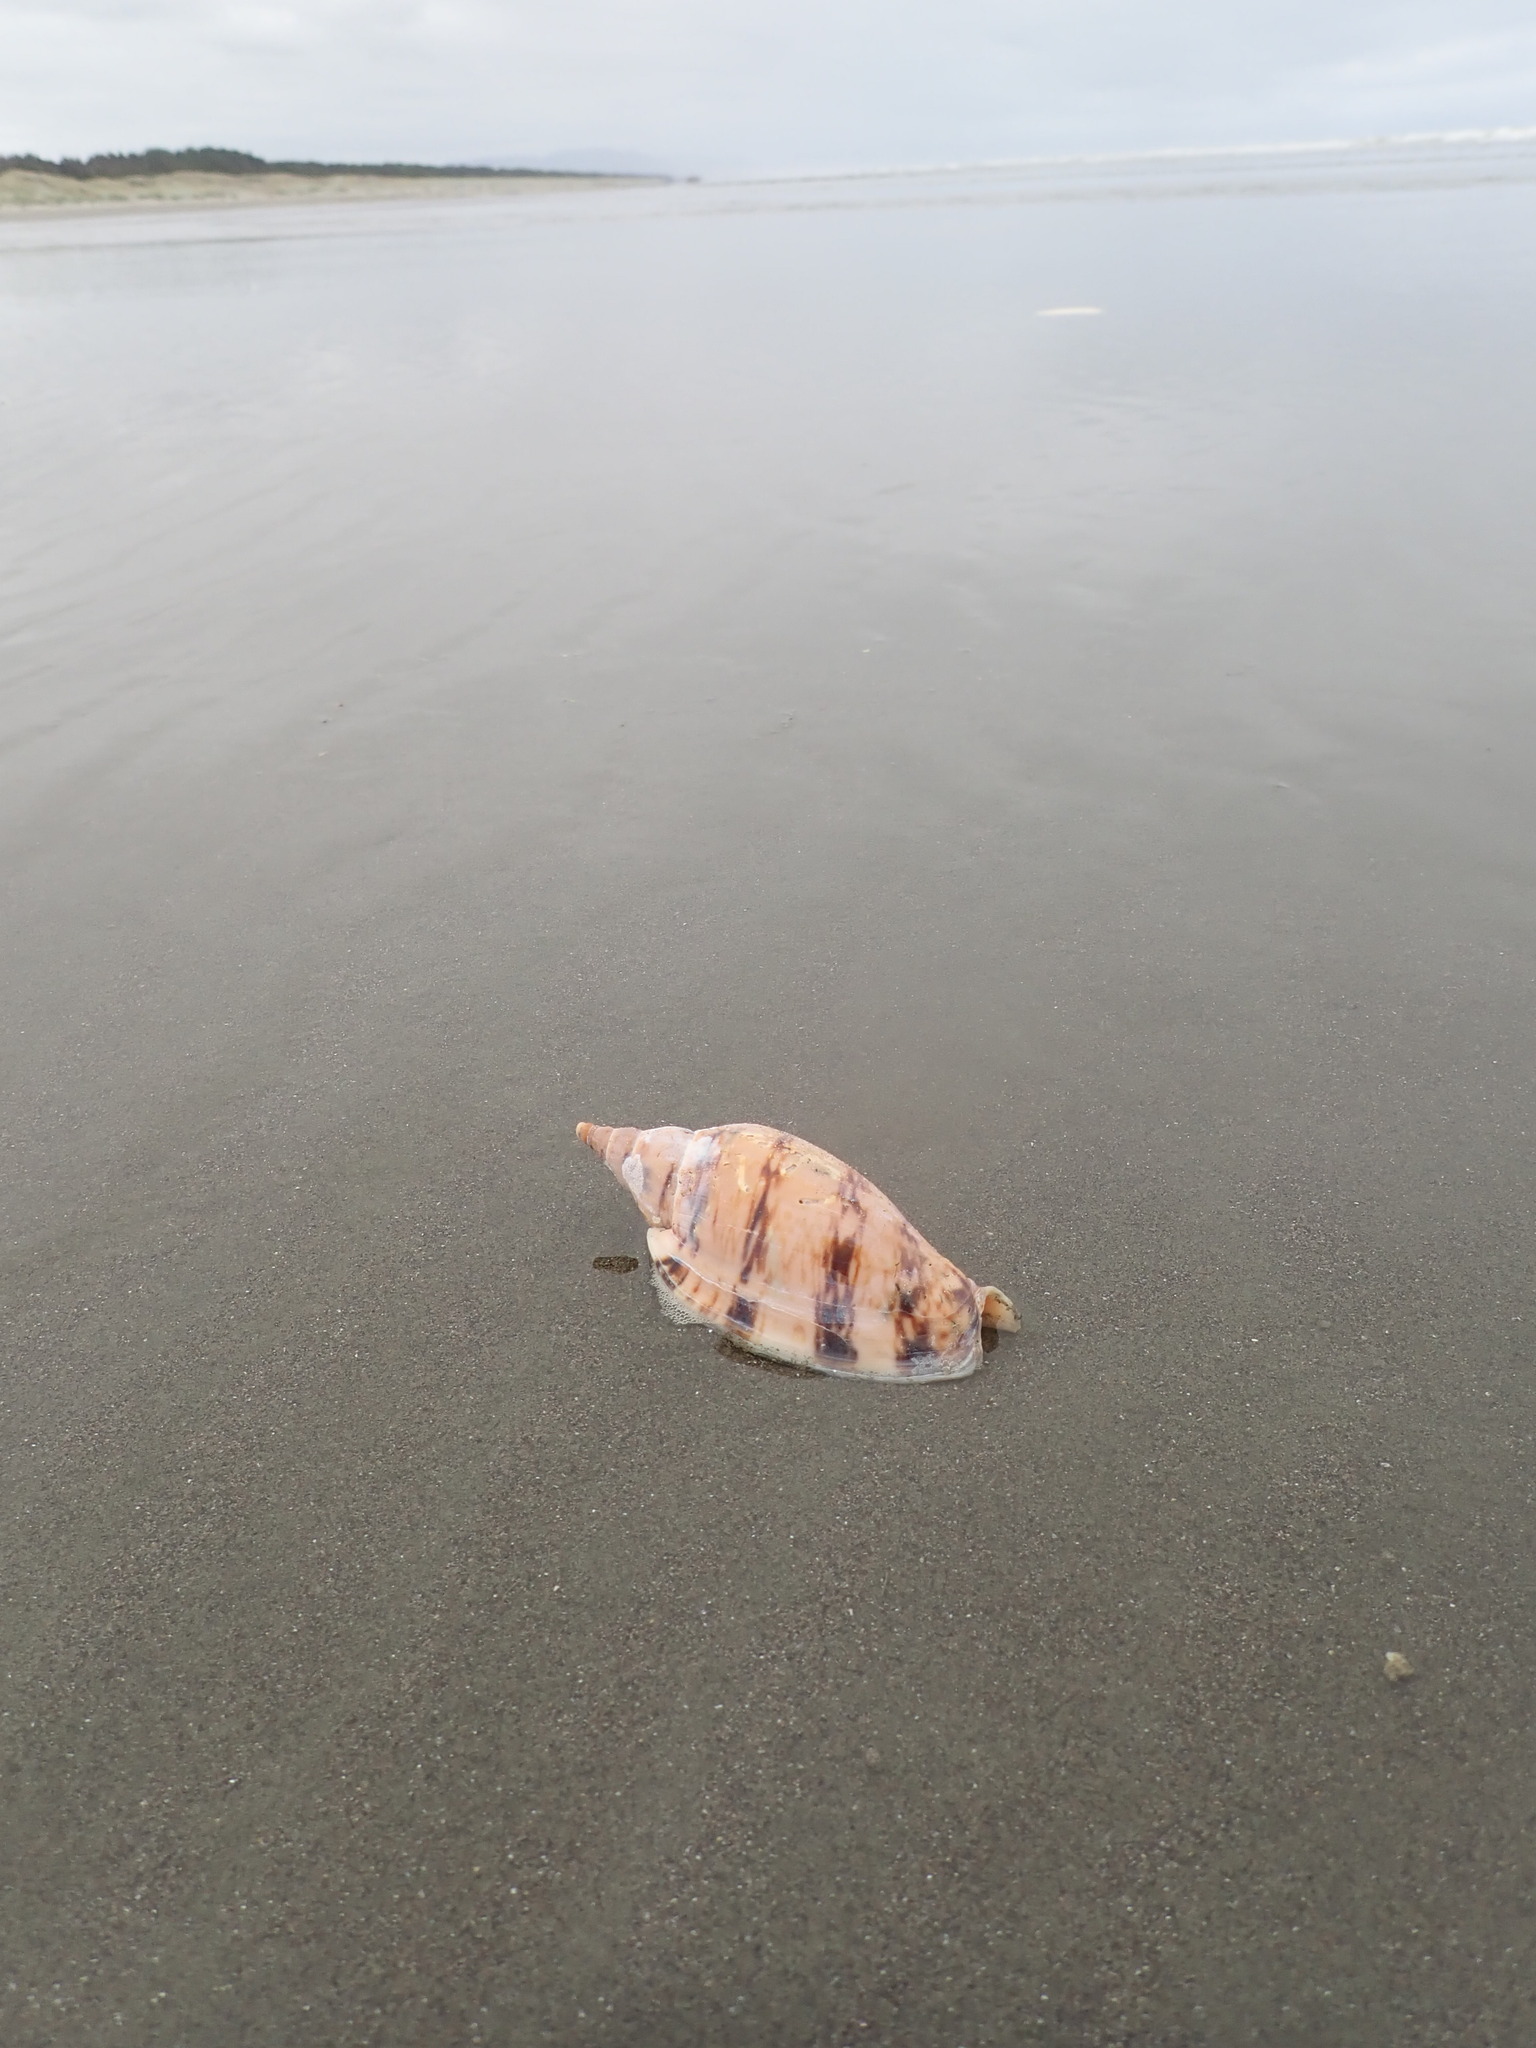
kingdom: Animalia
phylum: Mollusca
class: Gastropoda
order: Neogastropoda
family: Volutidae
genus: Alcithoe
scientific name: Alcithoe arabica
